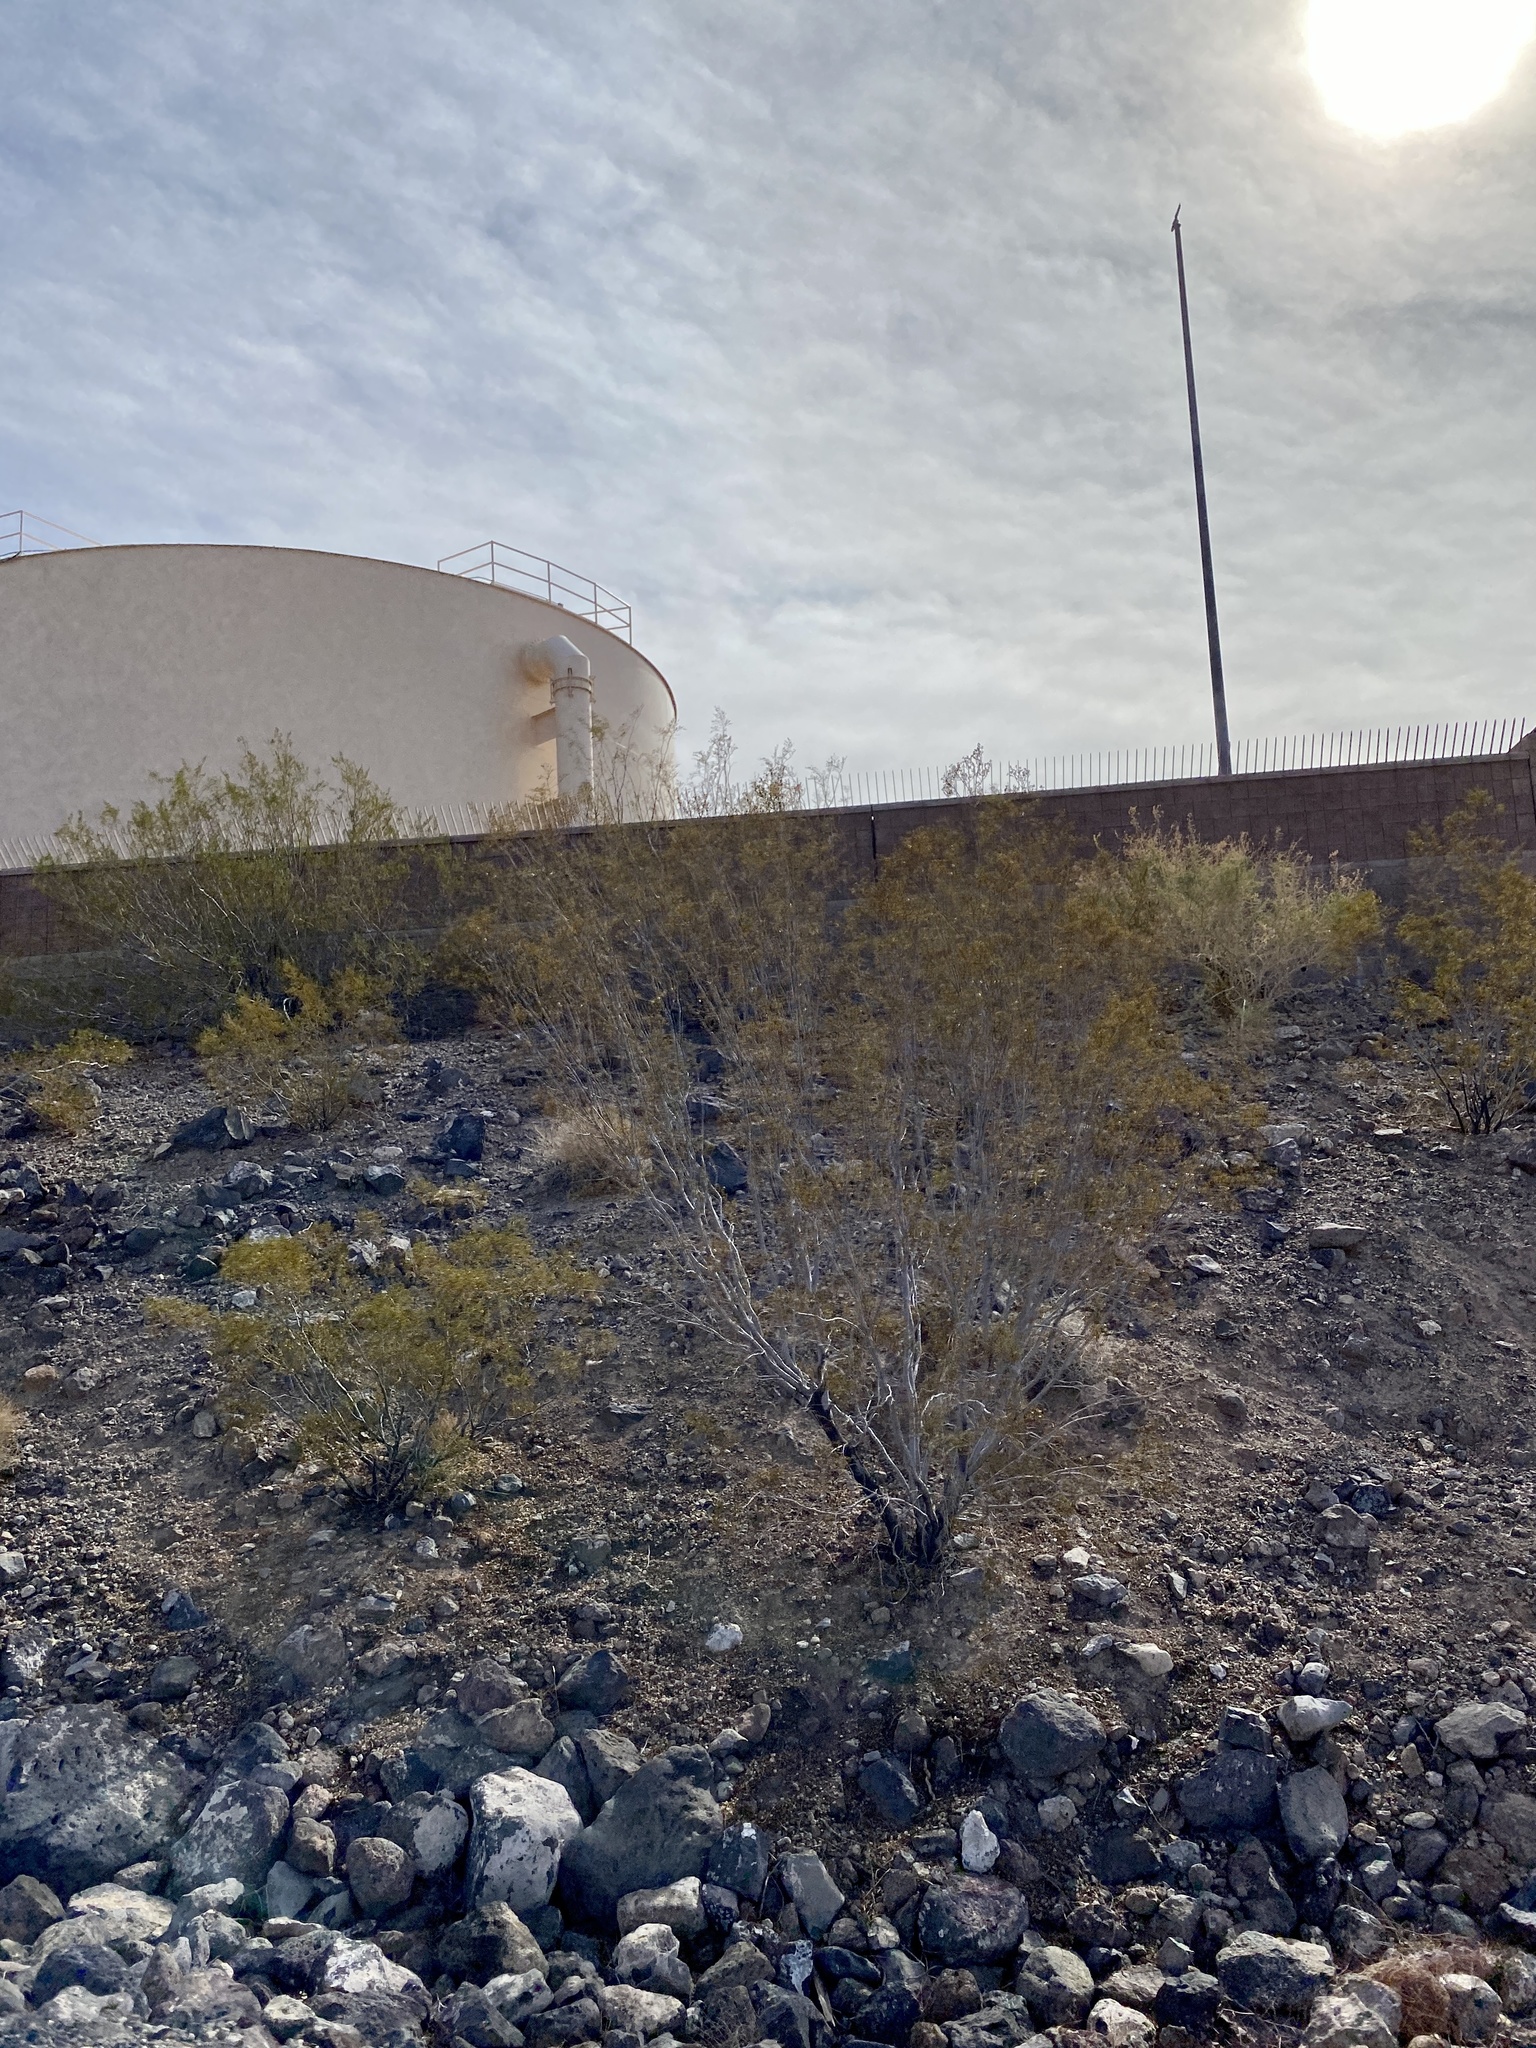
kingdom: Plantae
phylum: Tracheophyta
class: Magnoliopsida
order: Zygophyllales
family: Zygophyllaceae
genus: Larrea
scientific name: Larrea tridentata
